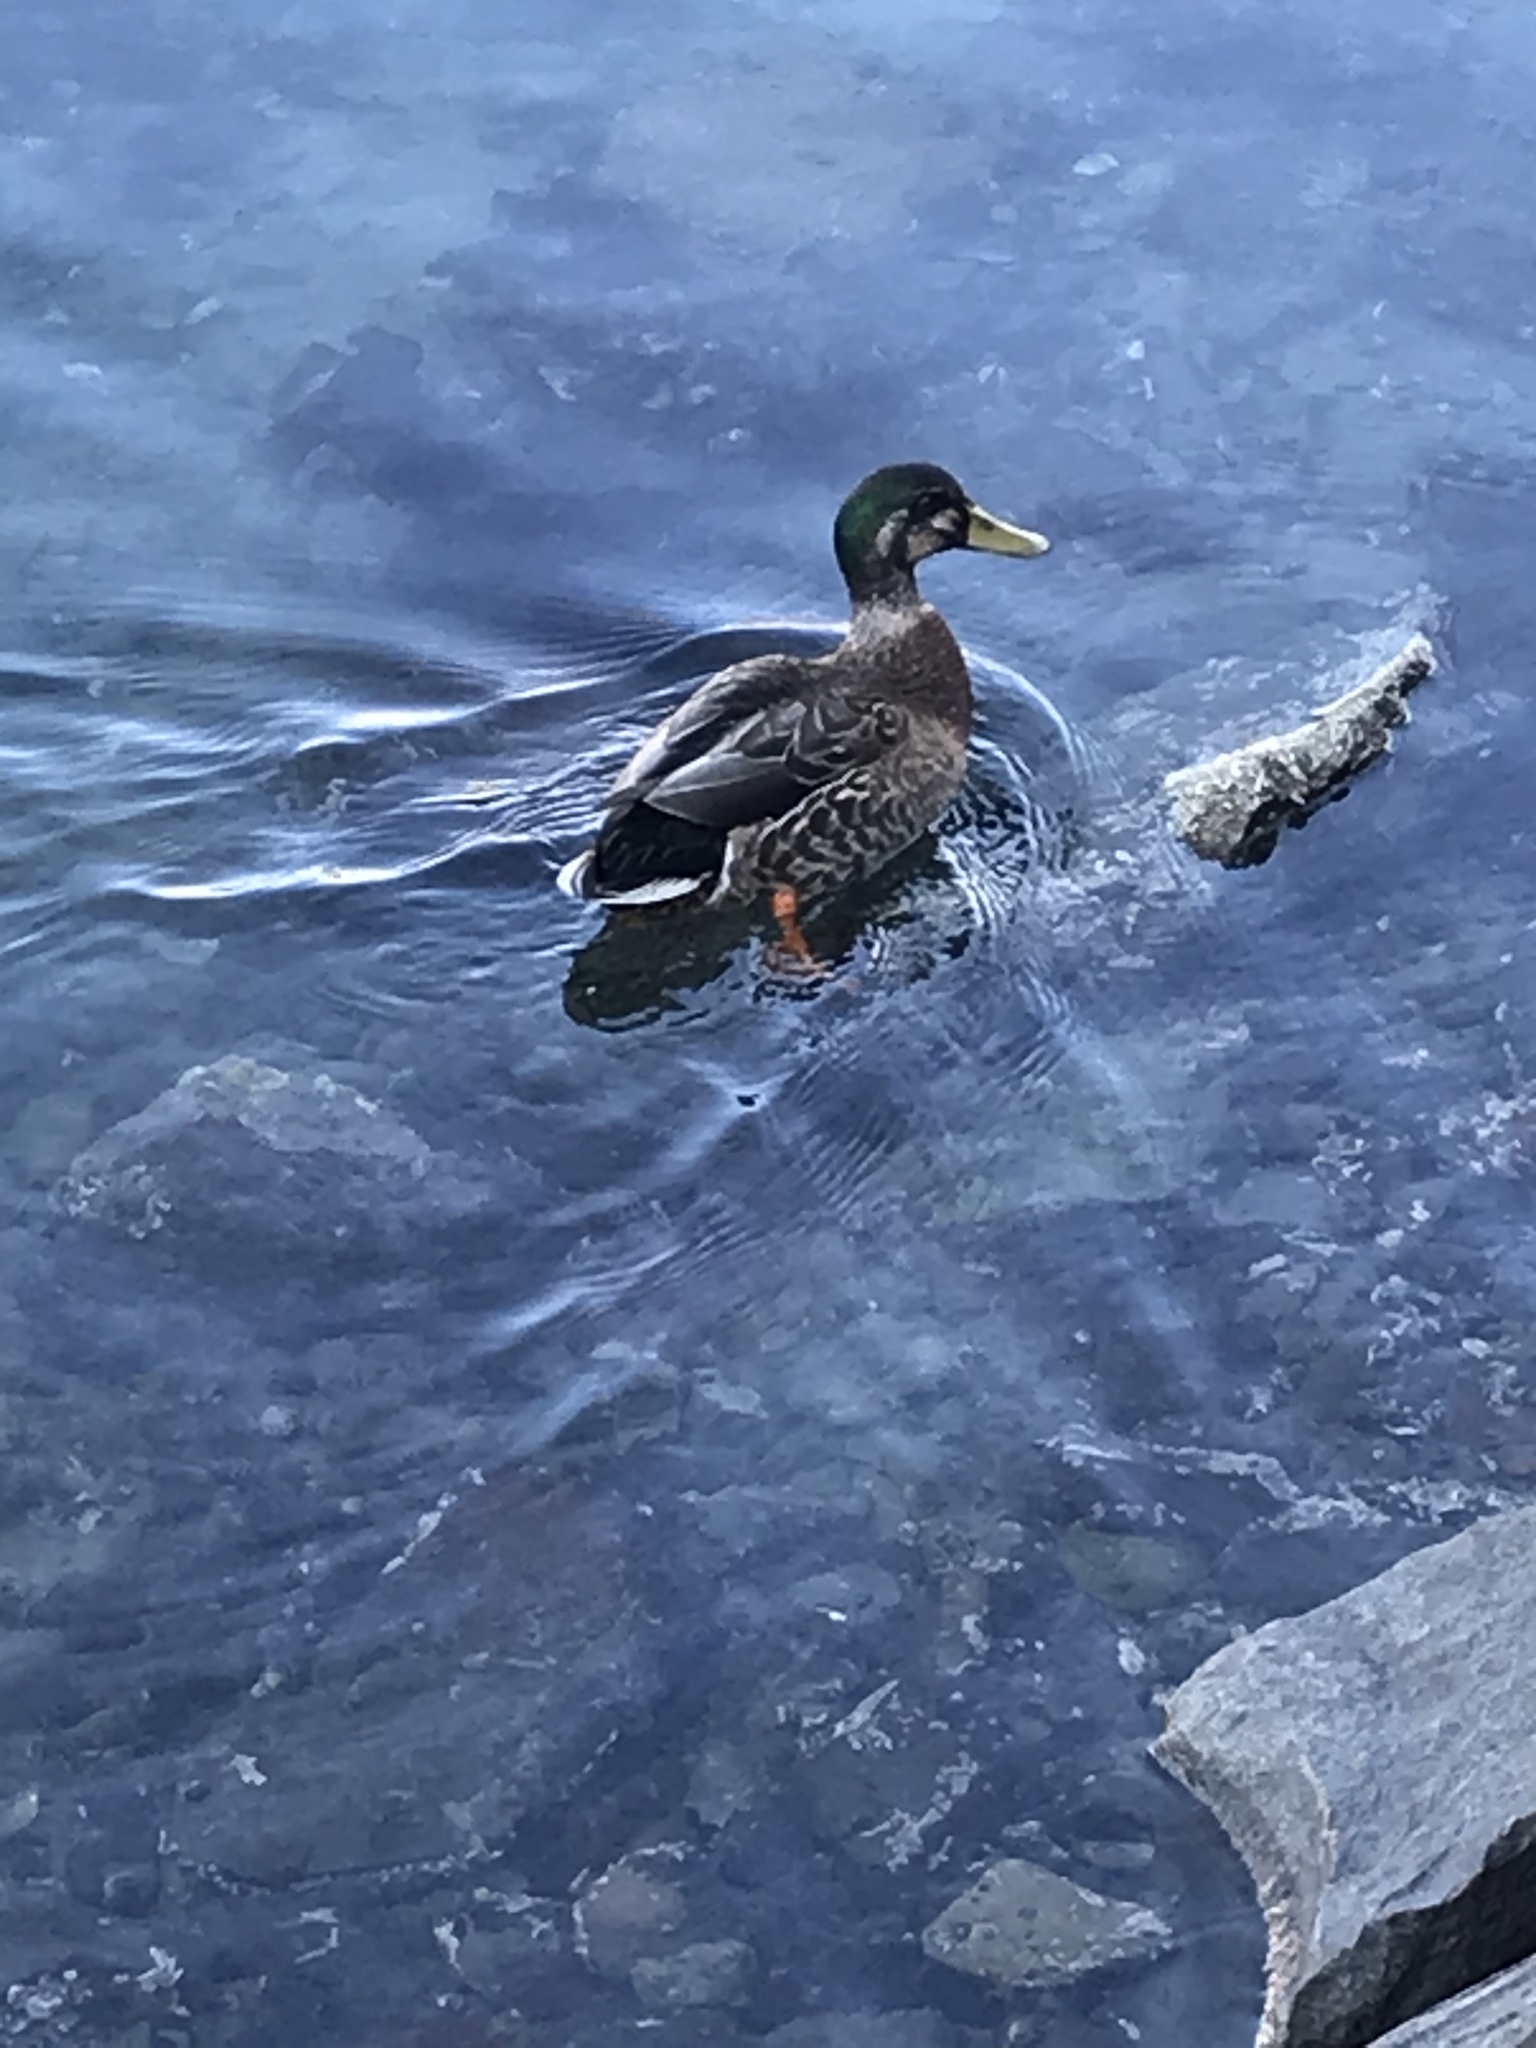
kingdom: Animalia
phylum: Chordata
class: Aves
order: Anseriformes
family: Anatidae
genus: Anas
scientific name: Anas
